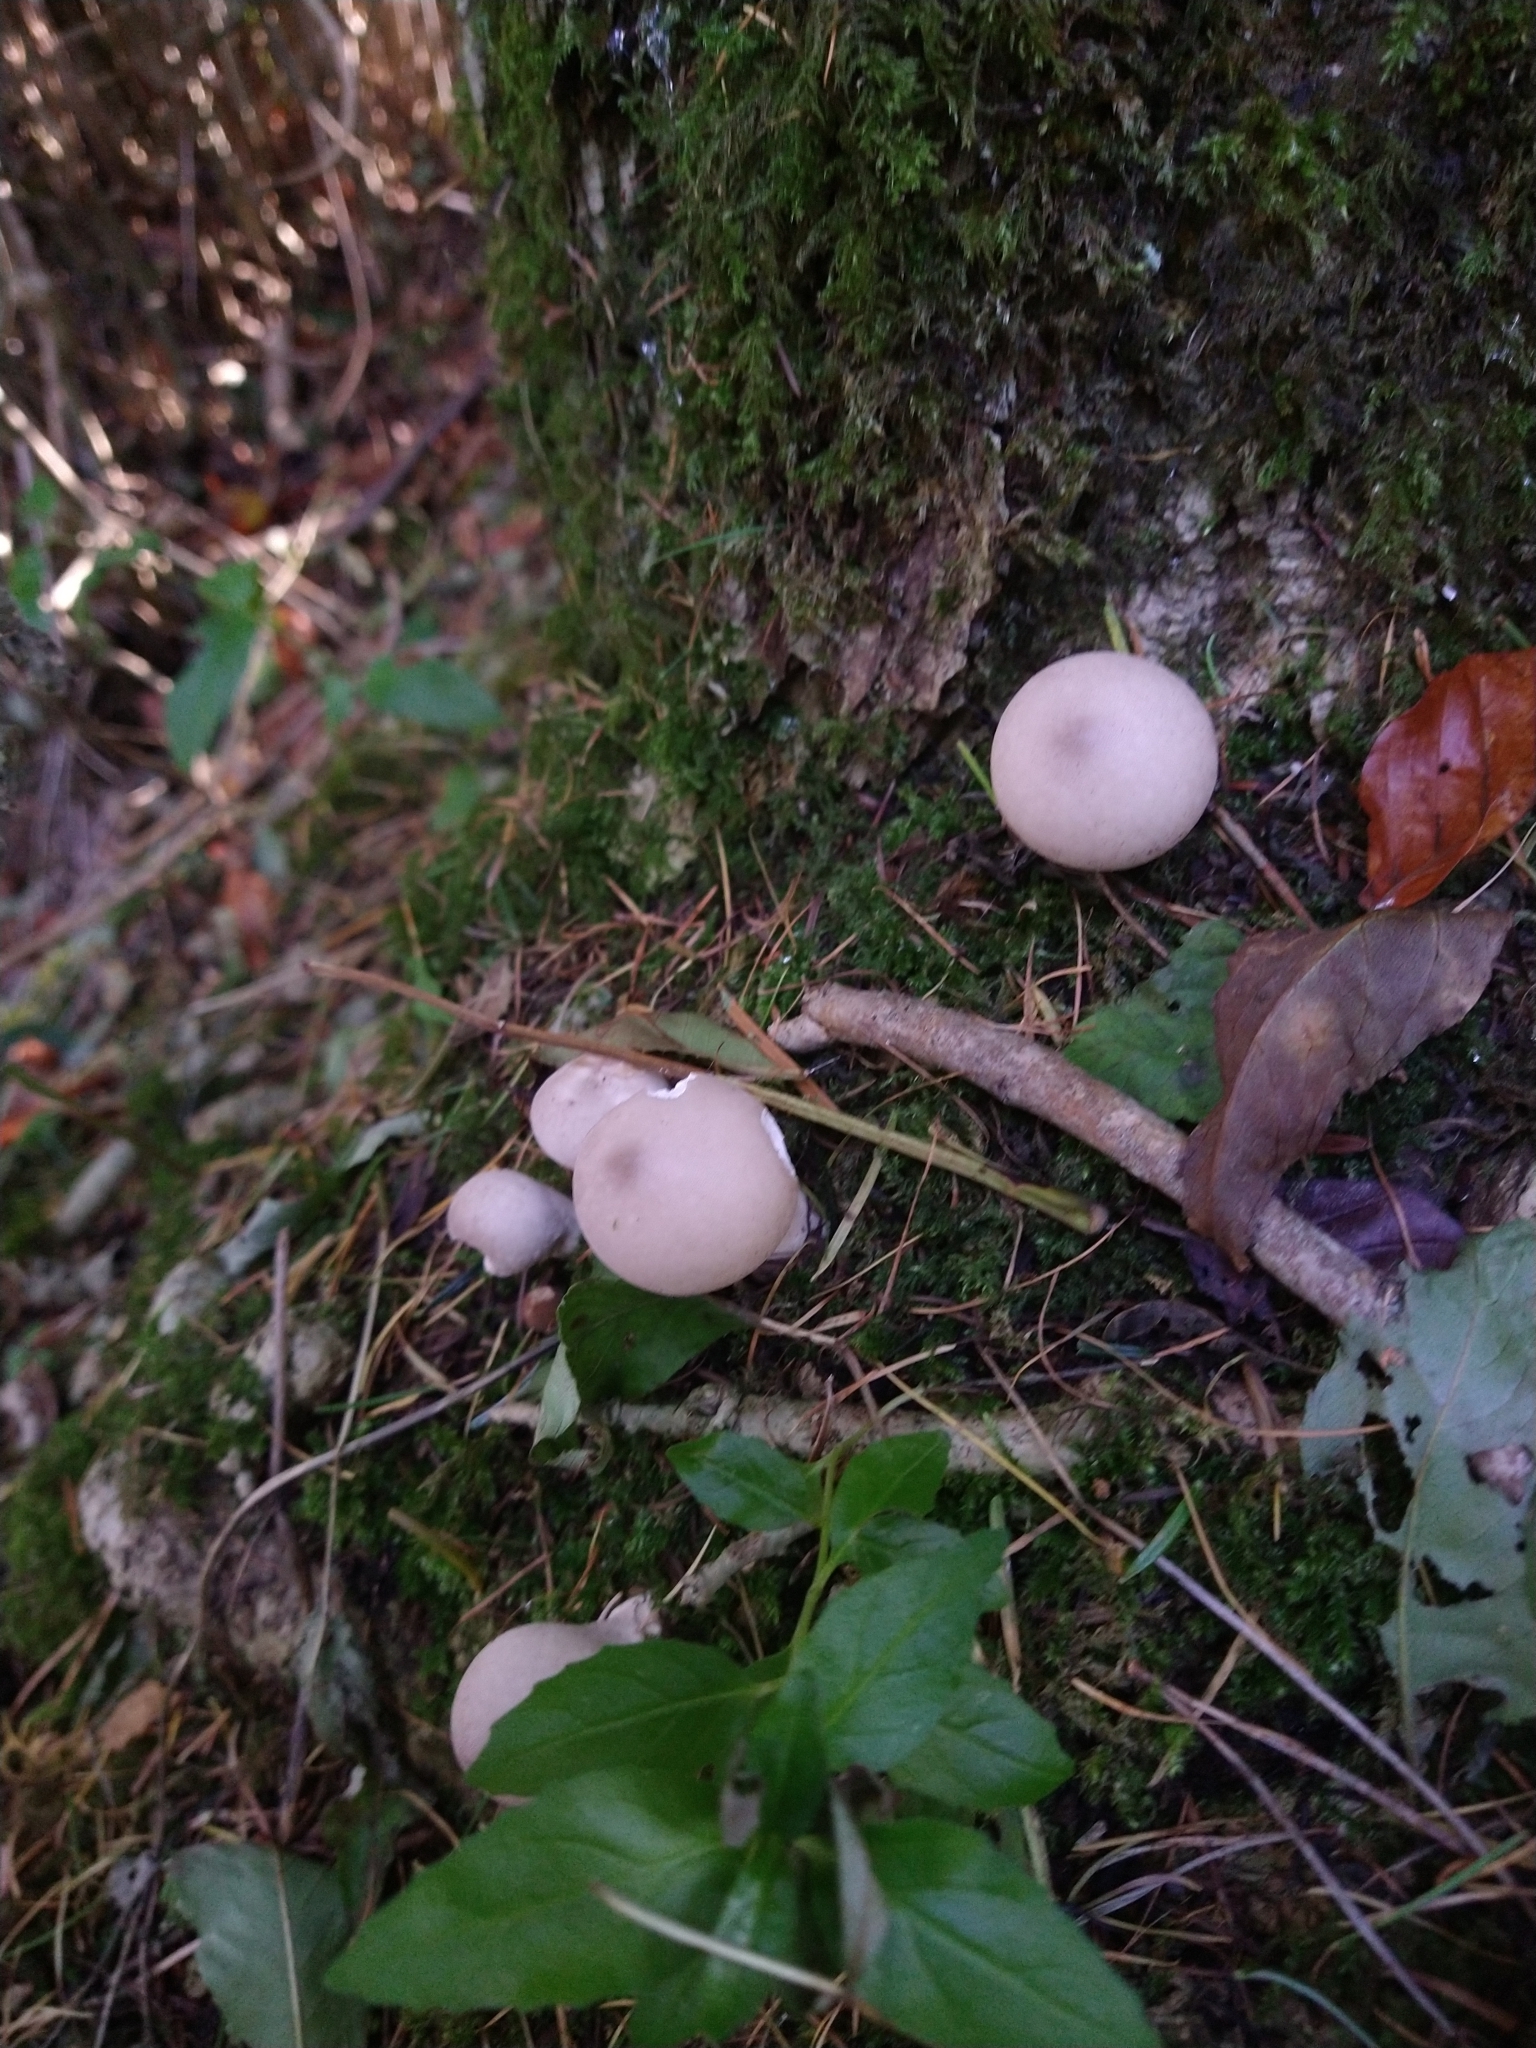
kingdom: Fungi
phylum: Basidiomycota
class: Agaricomycetes
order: Agaricales
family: Lycoperdaceae
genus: Apioperdon
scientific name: Apioperdon pyriforme
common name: Pear-shaped puffball
